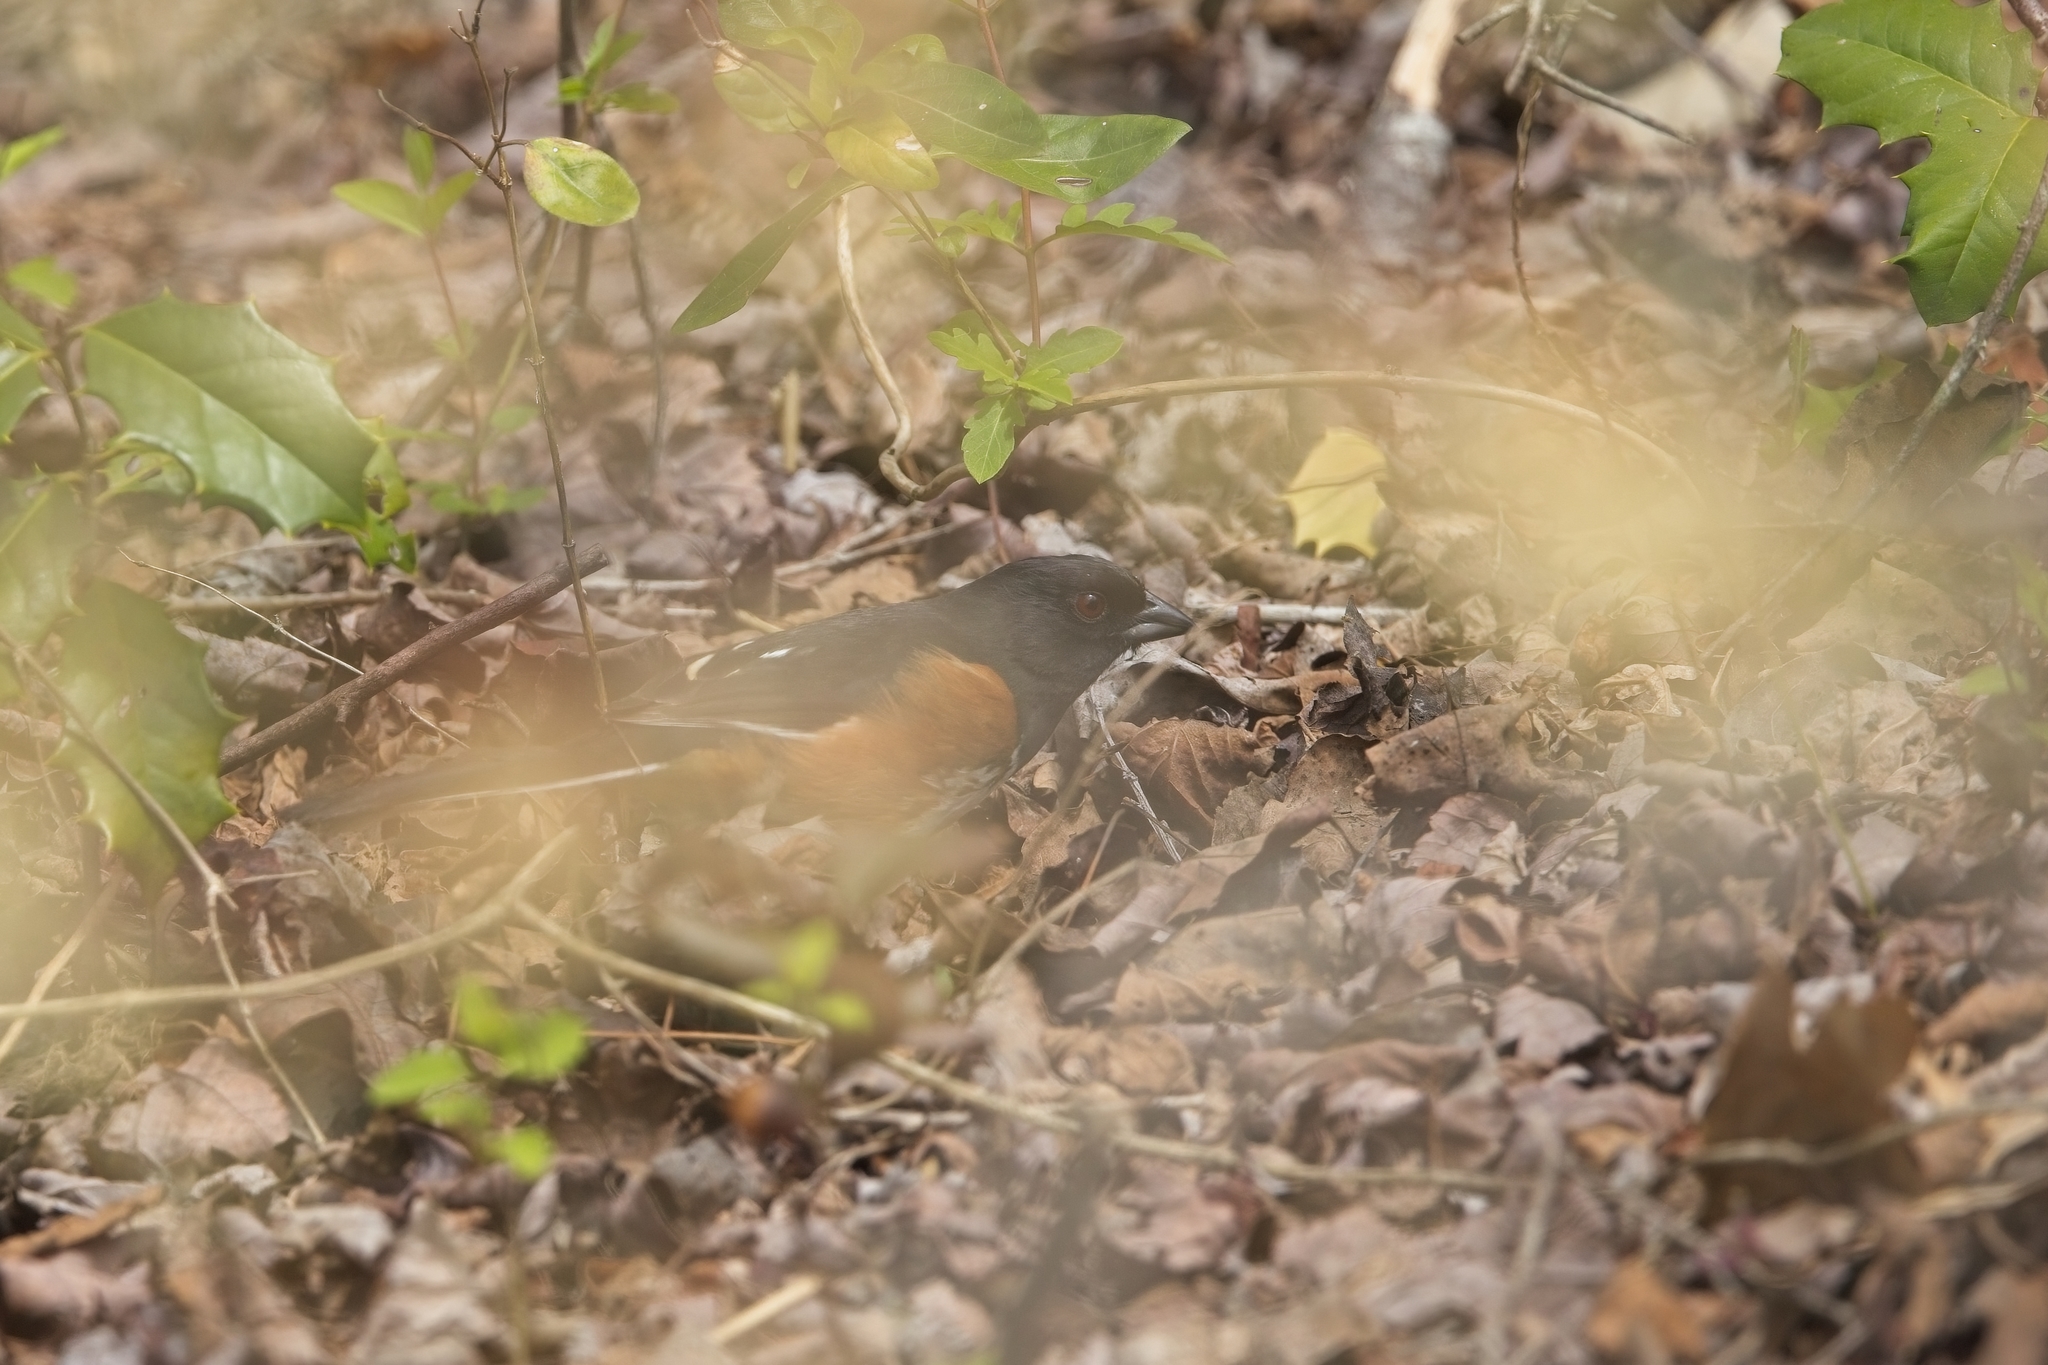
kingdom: Animalia
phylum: Chordata
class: Aves
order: Passeriformes
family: Passerellidae
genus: Pipilo
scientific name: Pipilo erythrophthalmus
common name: Eastern towhee
